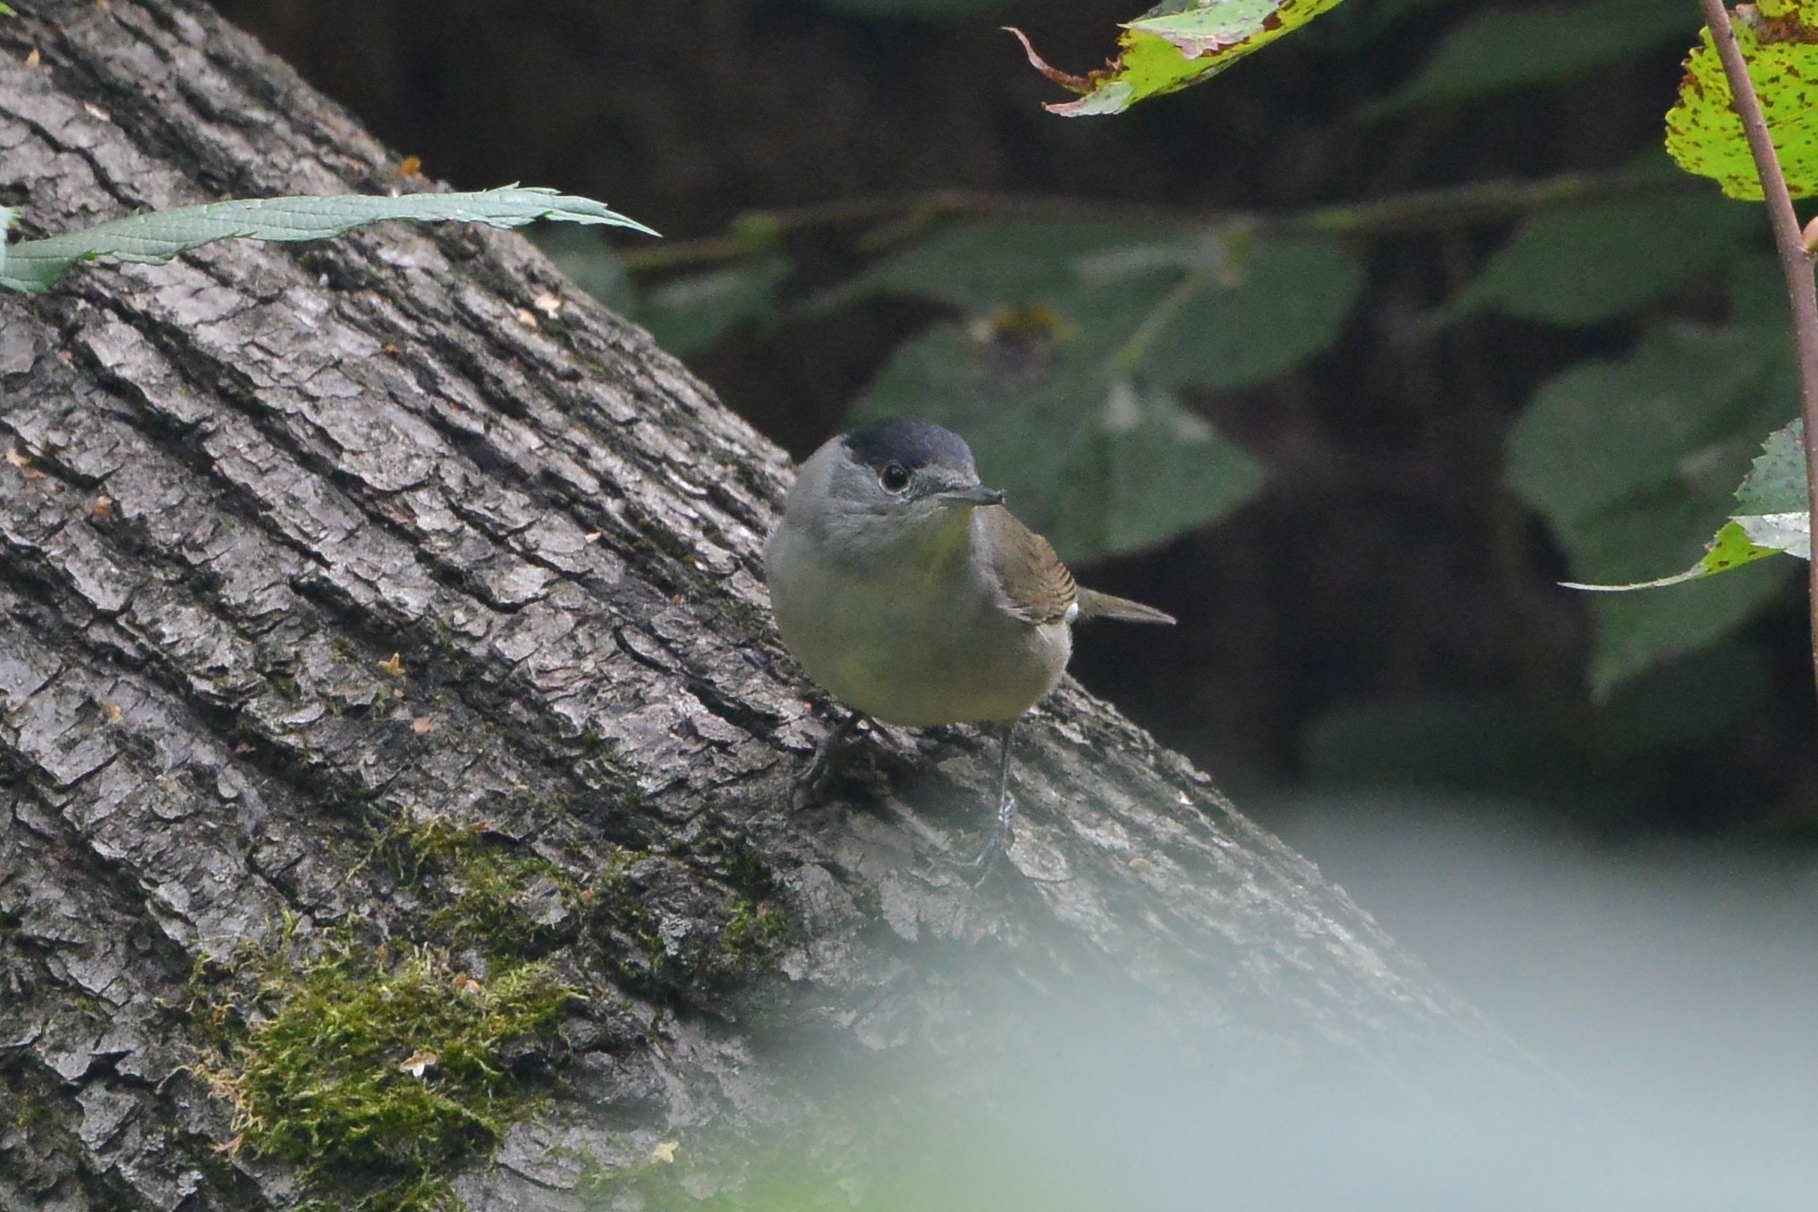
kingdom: Animalia
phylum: Chordata
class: Aves
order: Passeriformes
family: Sylviidae
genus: Sylvia
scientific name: Sylvia atricapilla
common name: Eurasian blackcap
